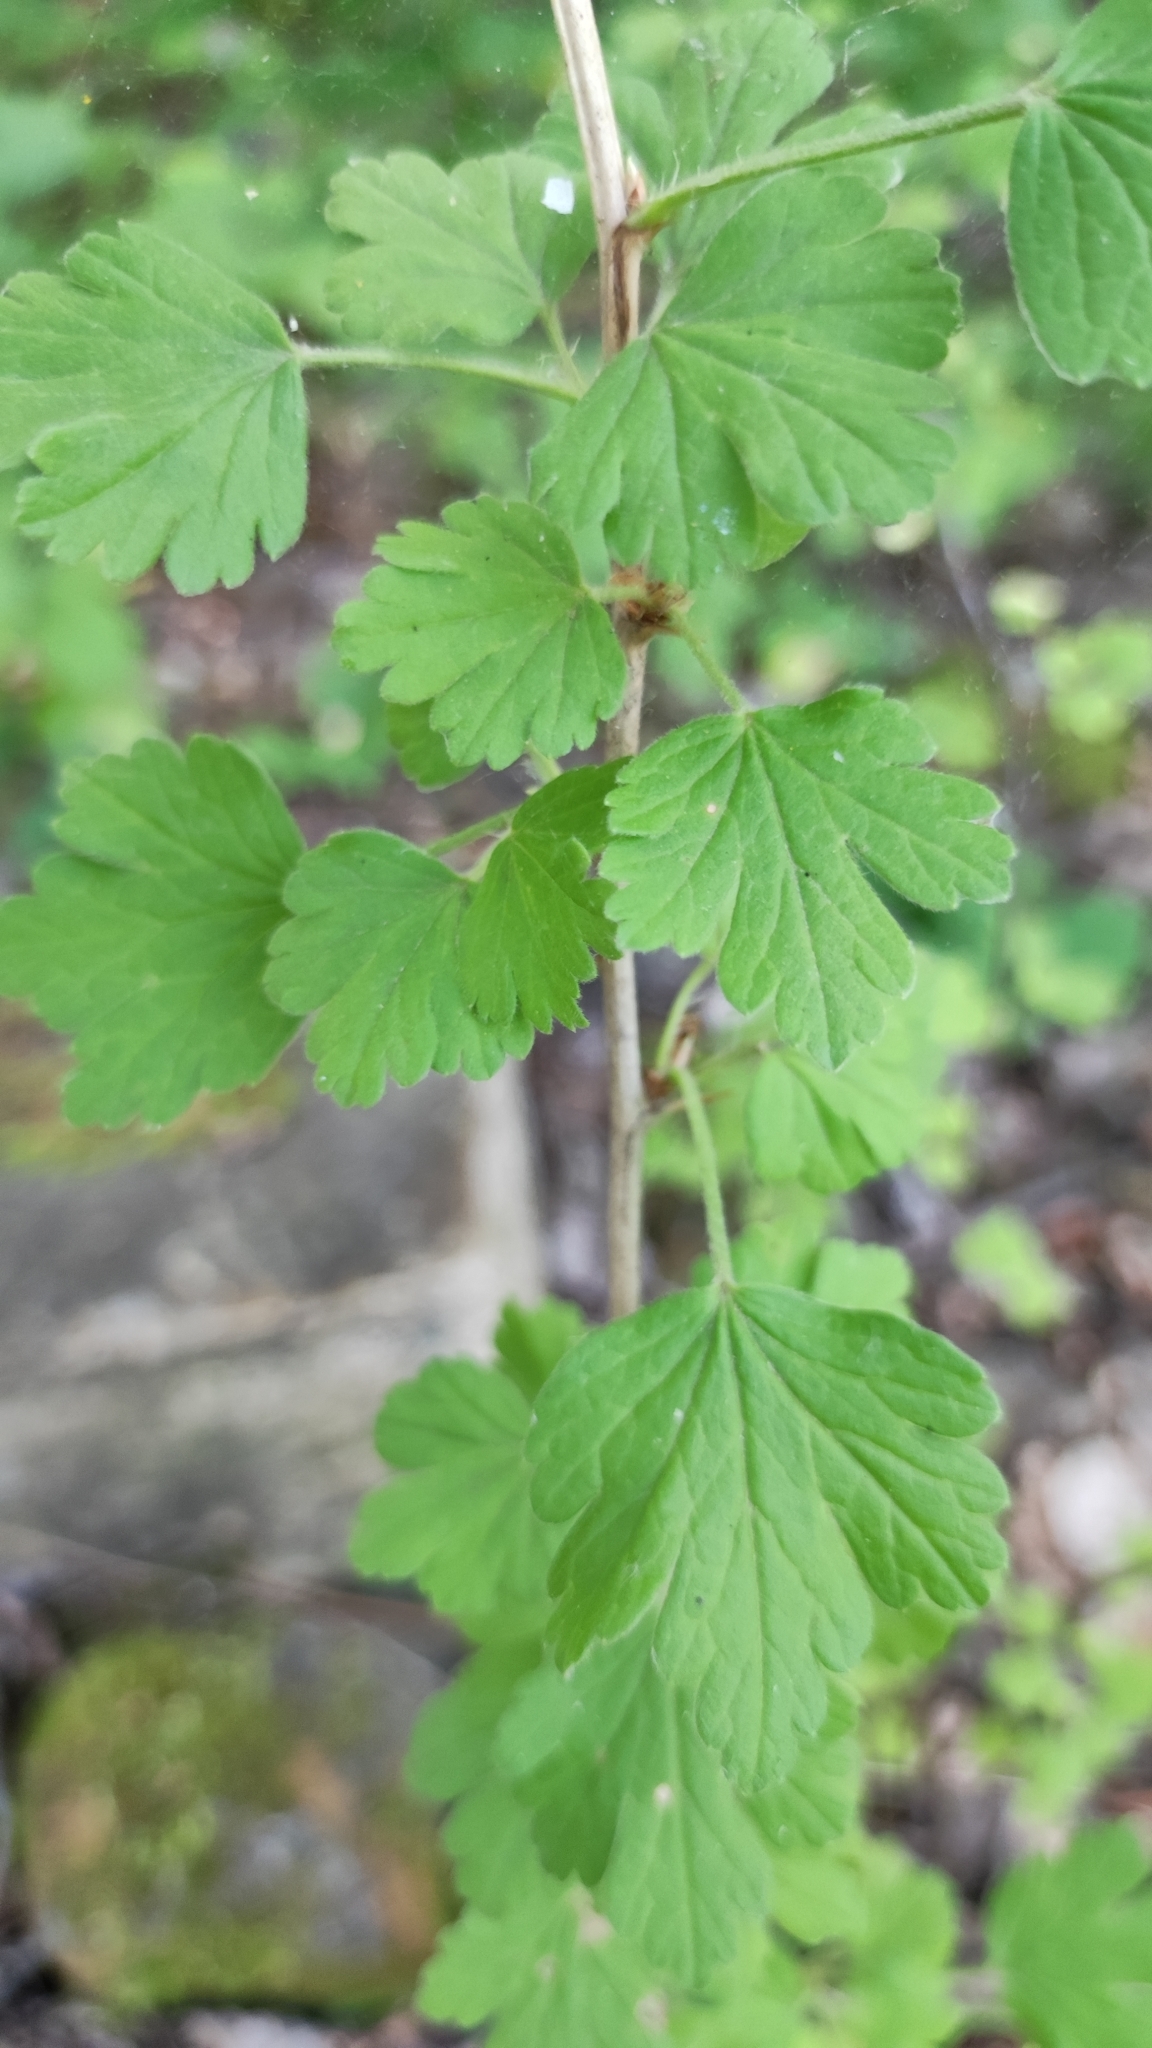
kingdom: Plantae
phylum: Tracheophyta
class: Magnoliopsida
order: Saxifragales
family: Grossulariaceae
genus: Ribes
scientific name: Ribes uva-crispa
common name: Gooseberry
